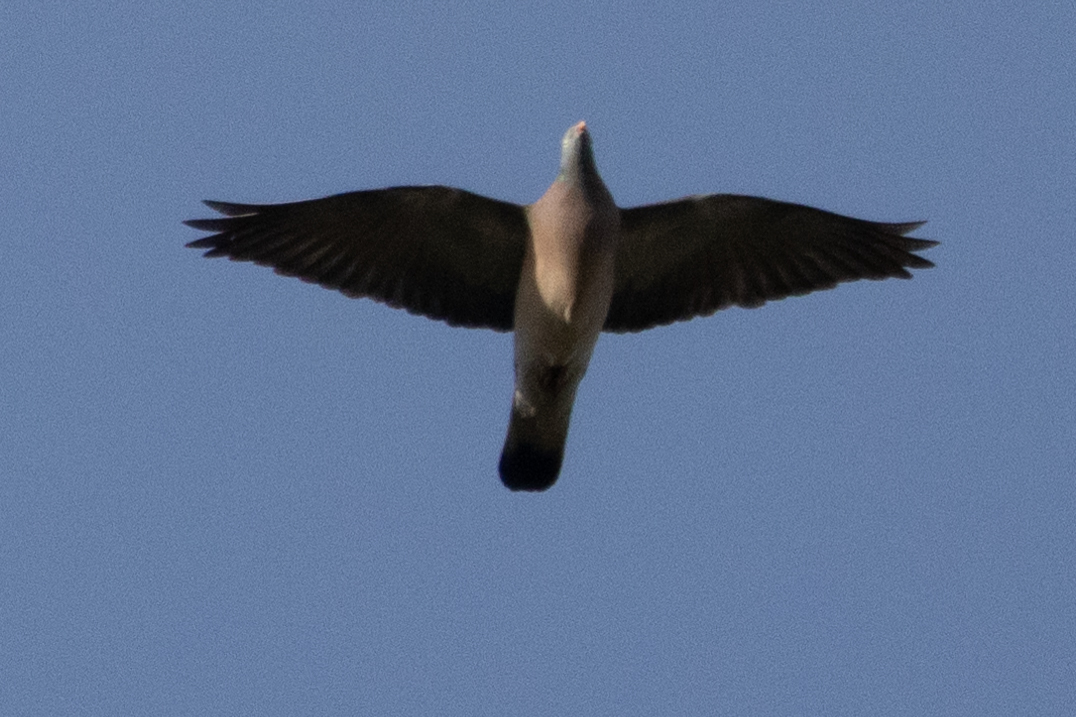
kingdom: Animalia
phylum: Chordata
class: Aves
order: Columbiformes
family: Columbidae
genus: Columba
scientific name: Columba palumbus
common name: Common wood pigeon
